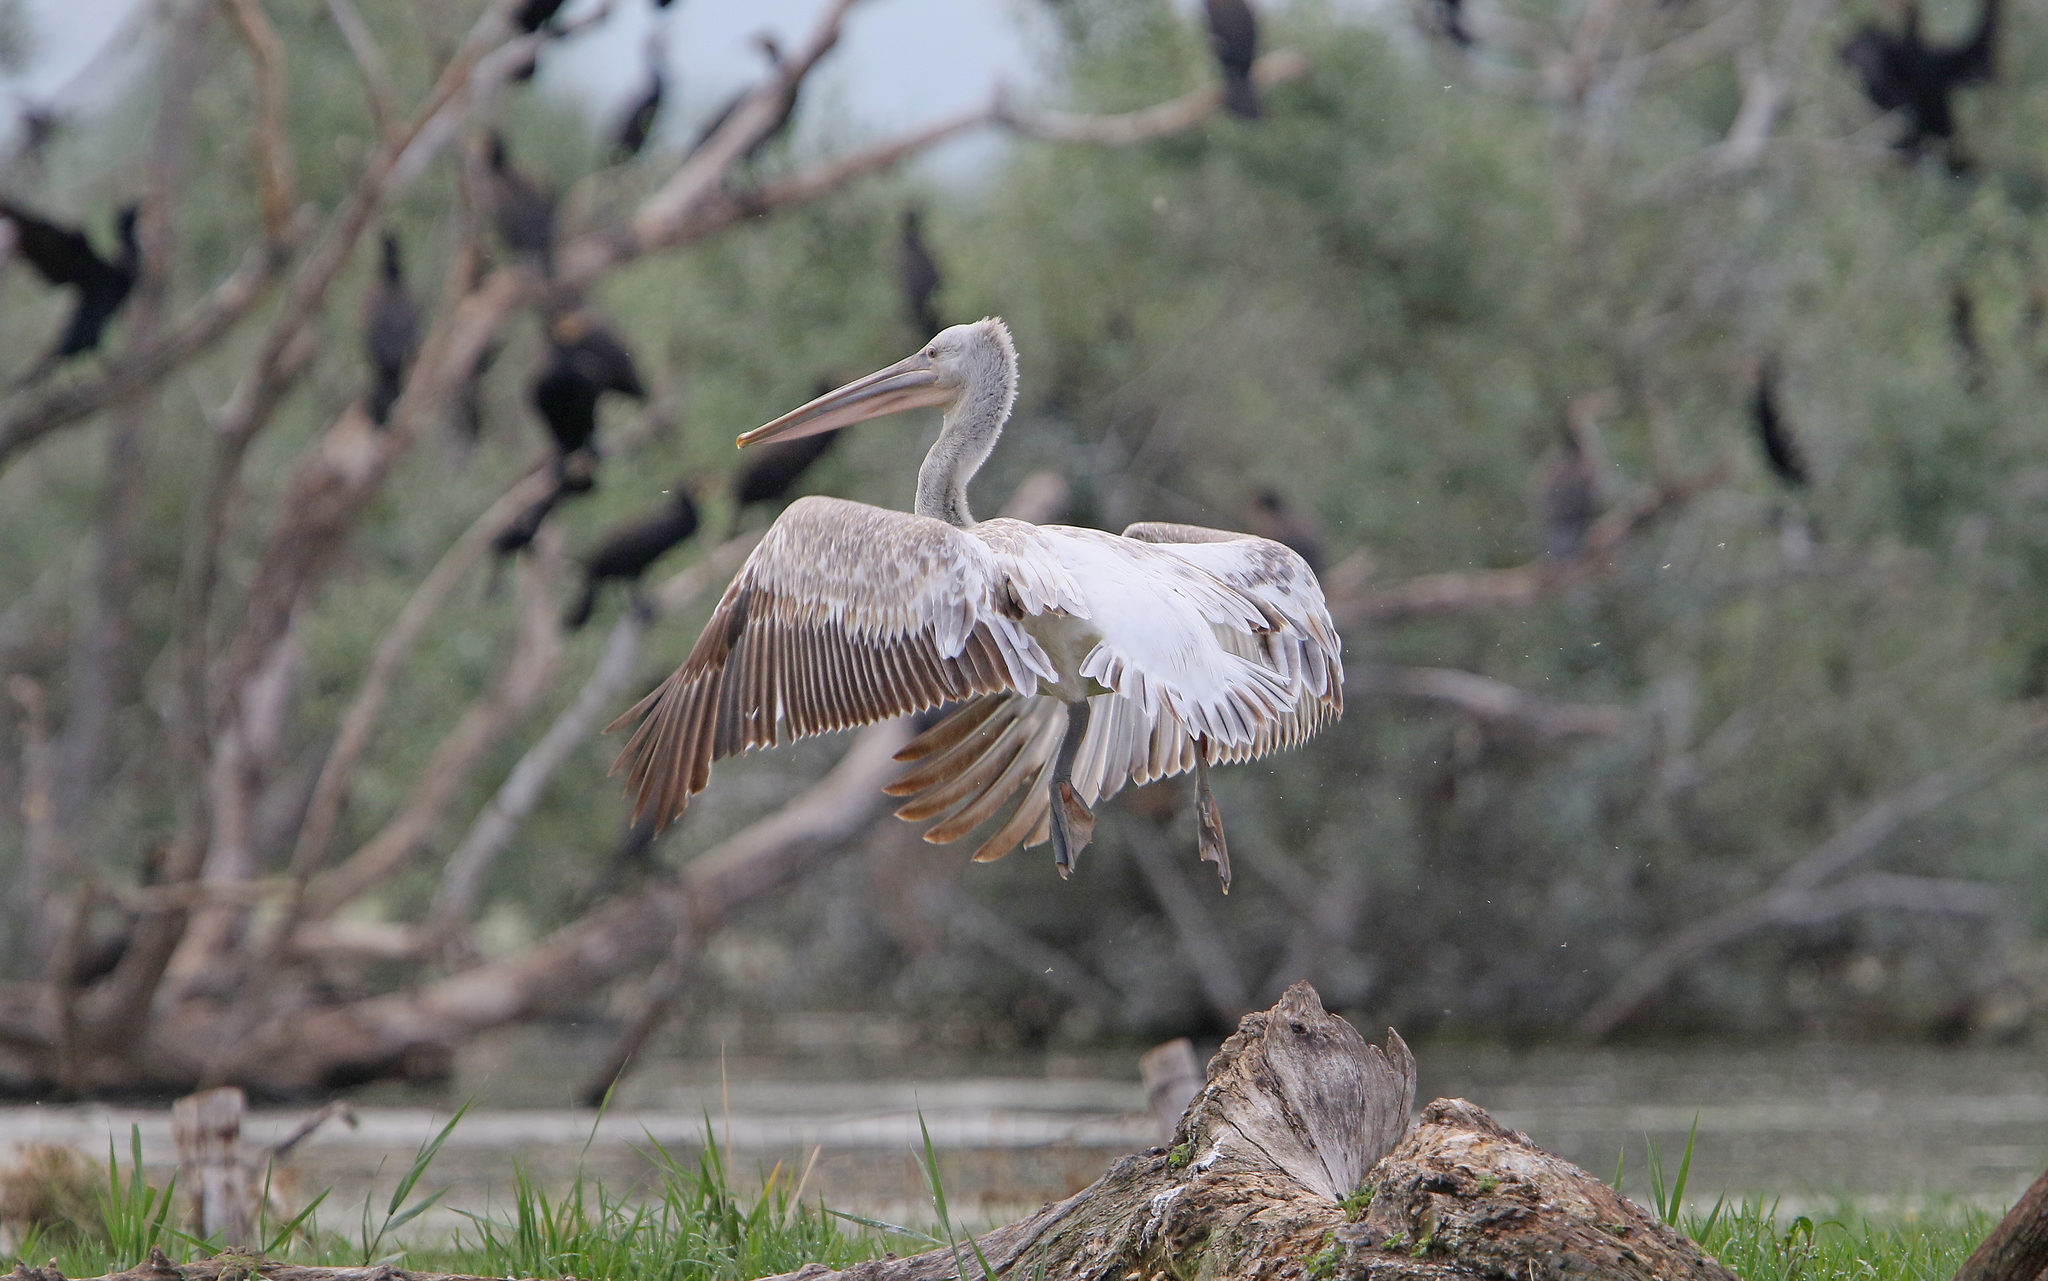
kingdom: Animalia
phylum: Chordata
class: Aves
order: Pelecaniformes
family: Pelecanidae
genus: Pelecanus
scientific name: Pelecanus crispus
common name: Dalmatian pelican
